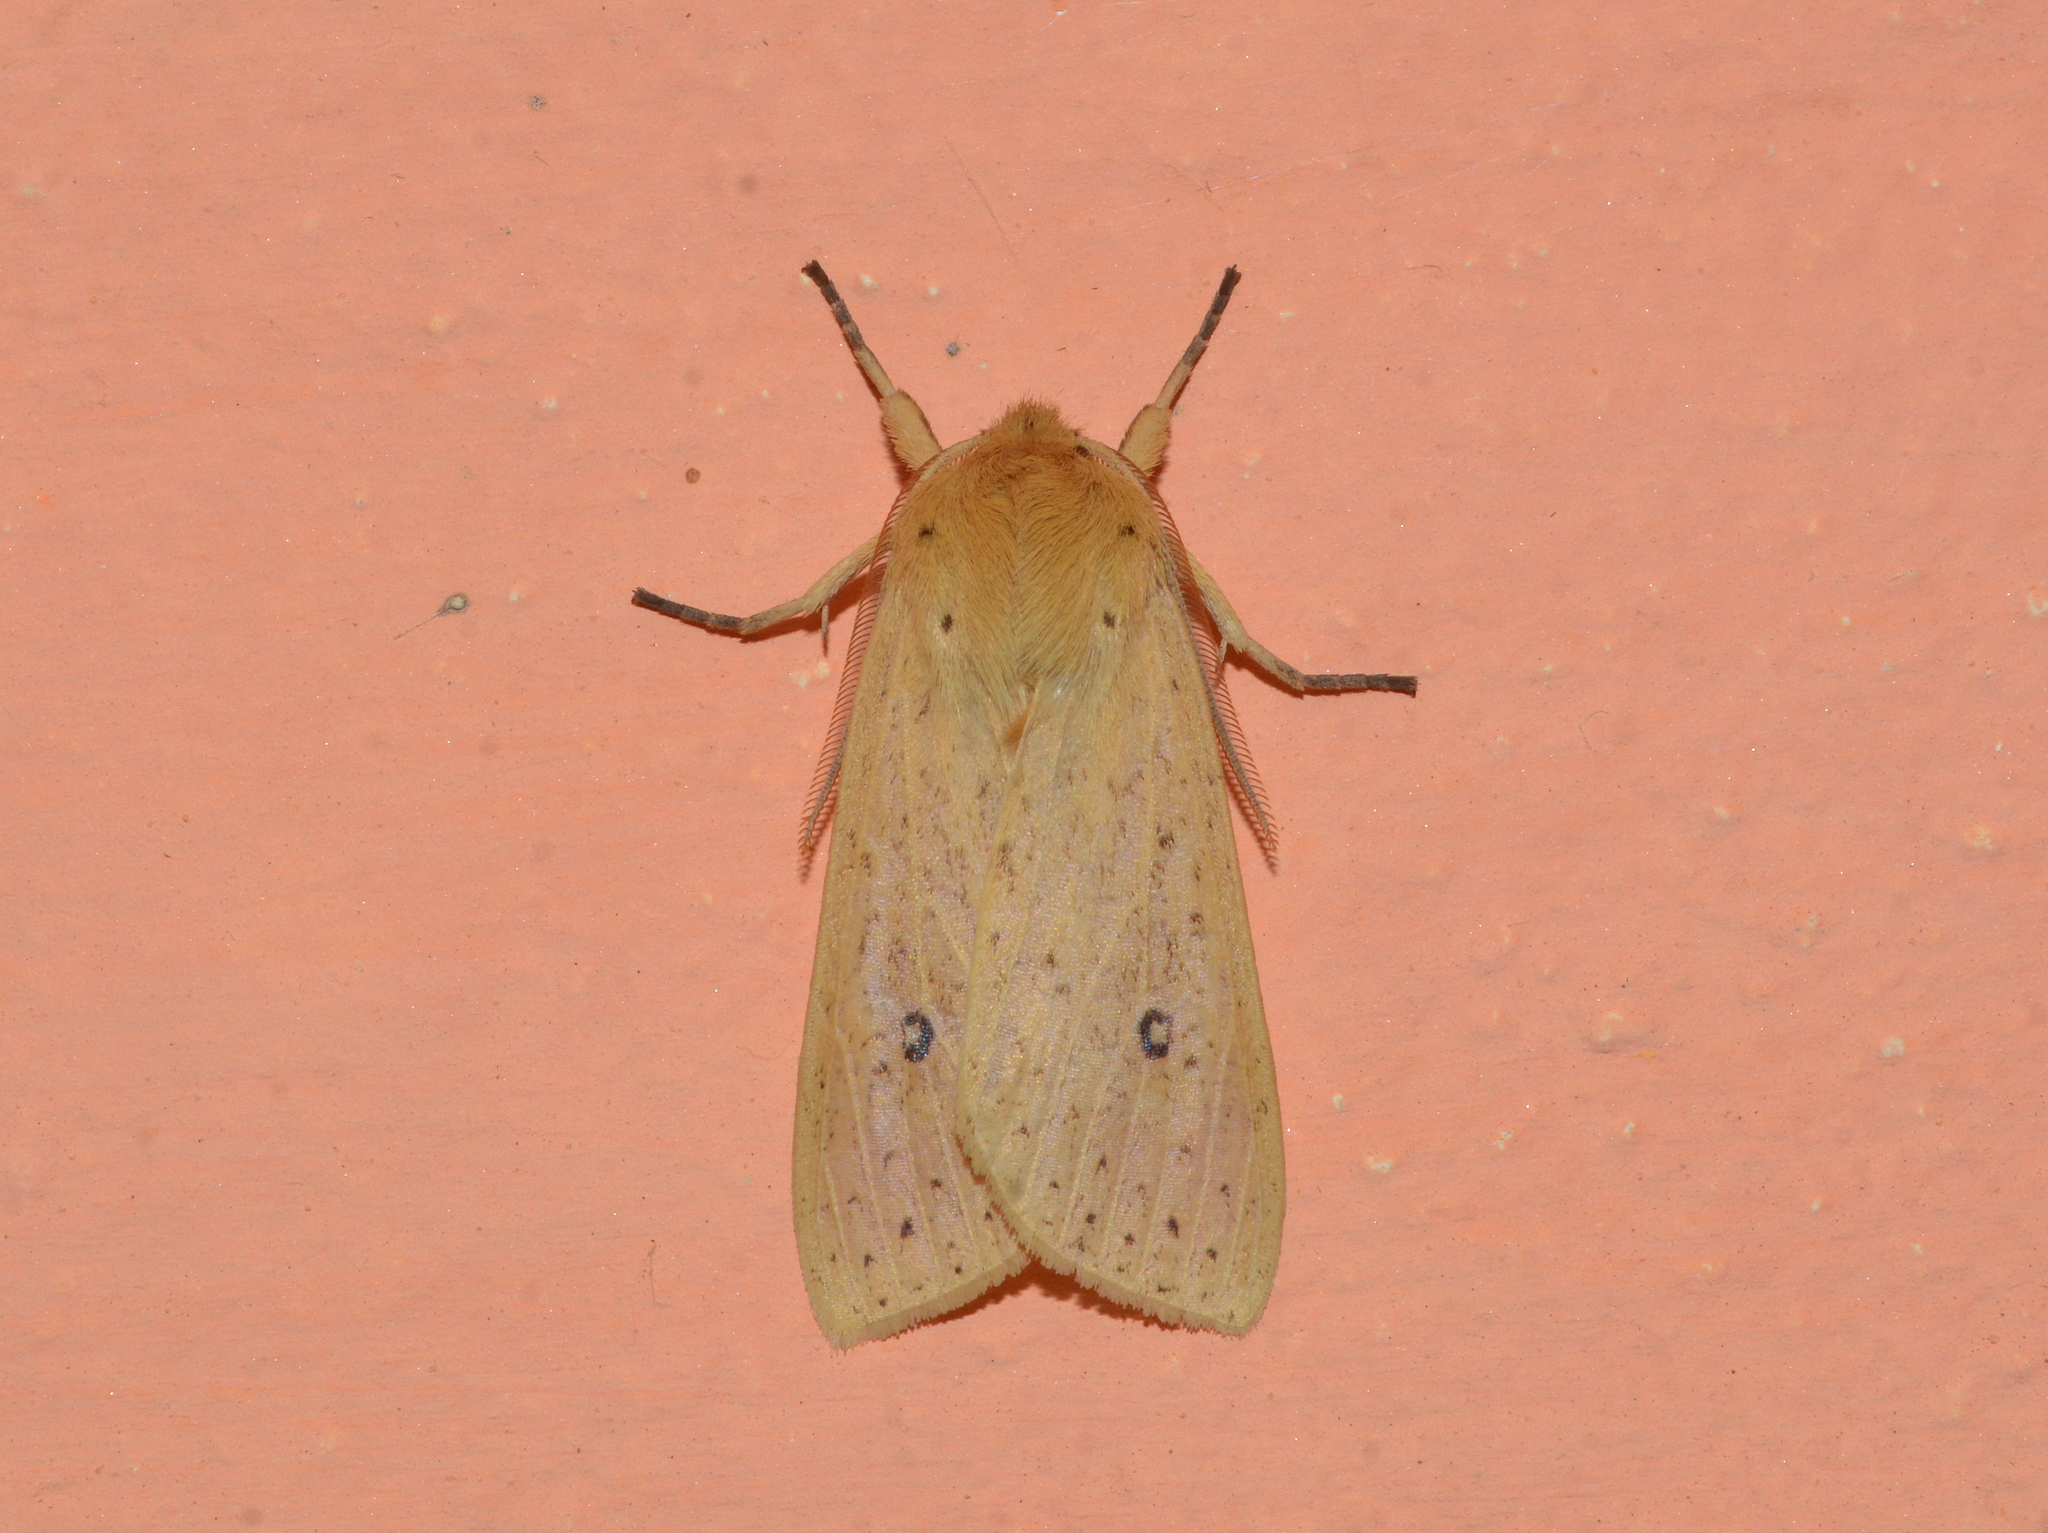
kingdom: Animalia
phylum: Arthropoda
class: Insecta
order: Lepidoptera
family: Erebidae
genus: Leucanopsis
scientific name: Leucanopsis leucanina
